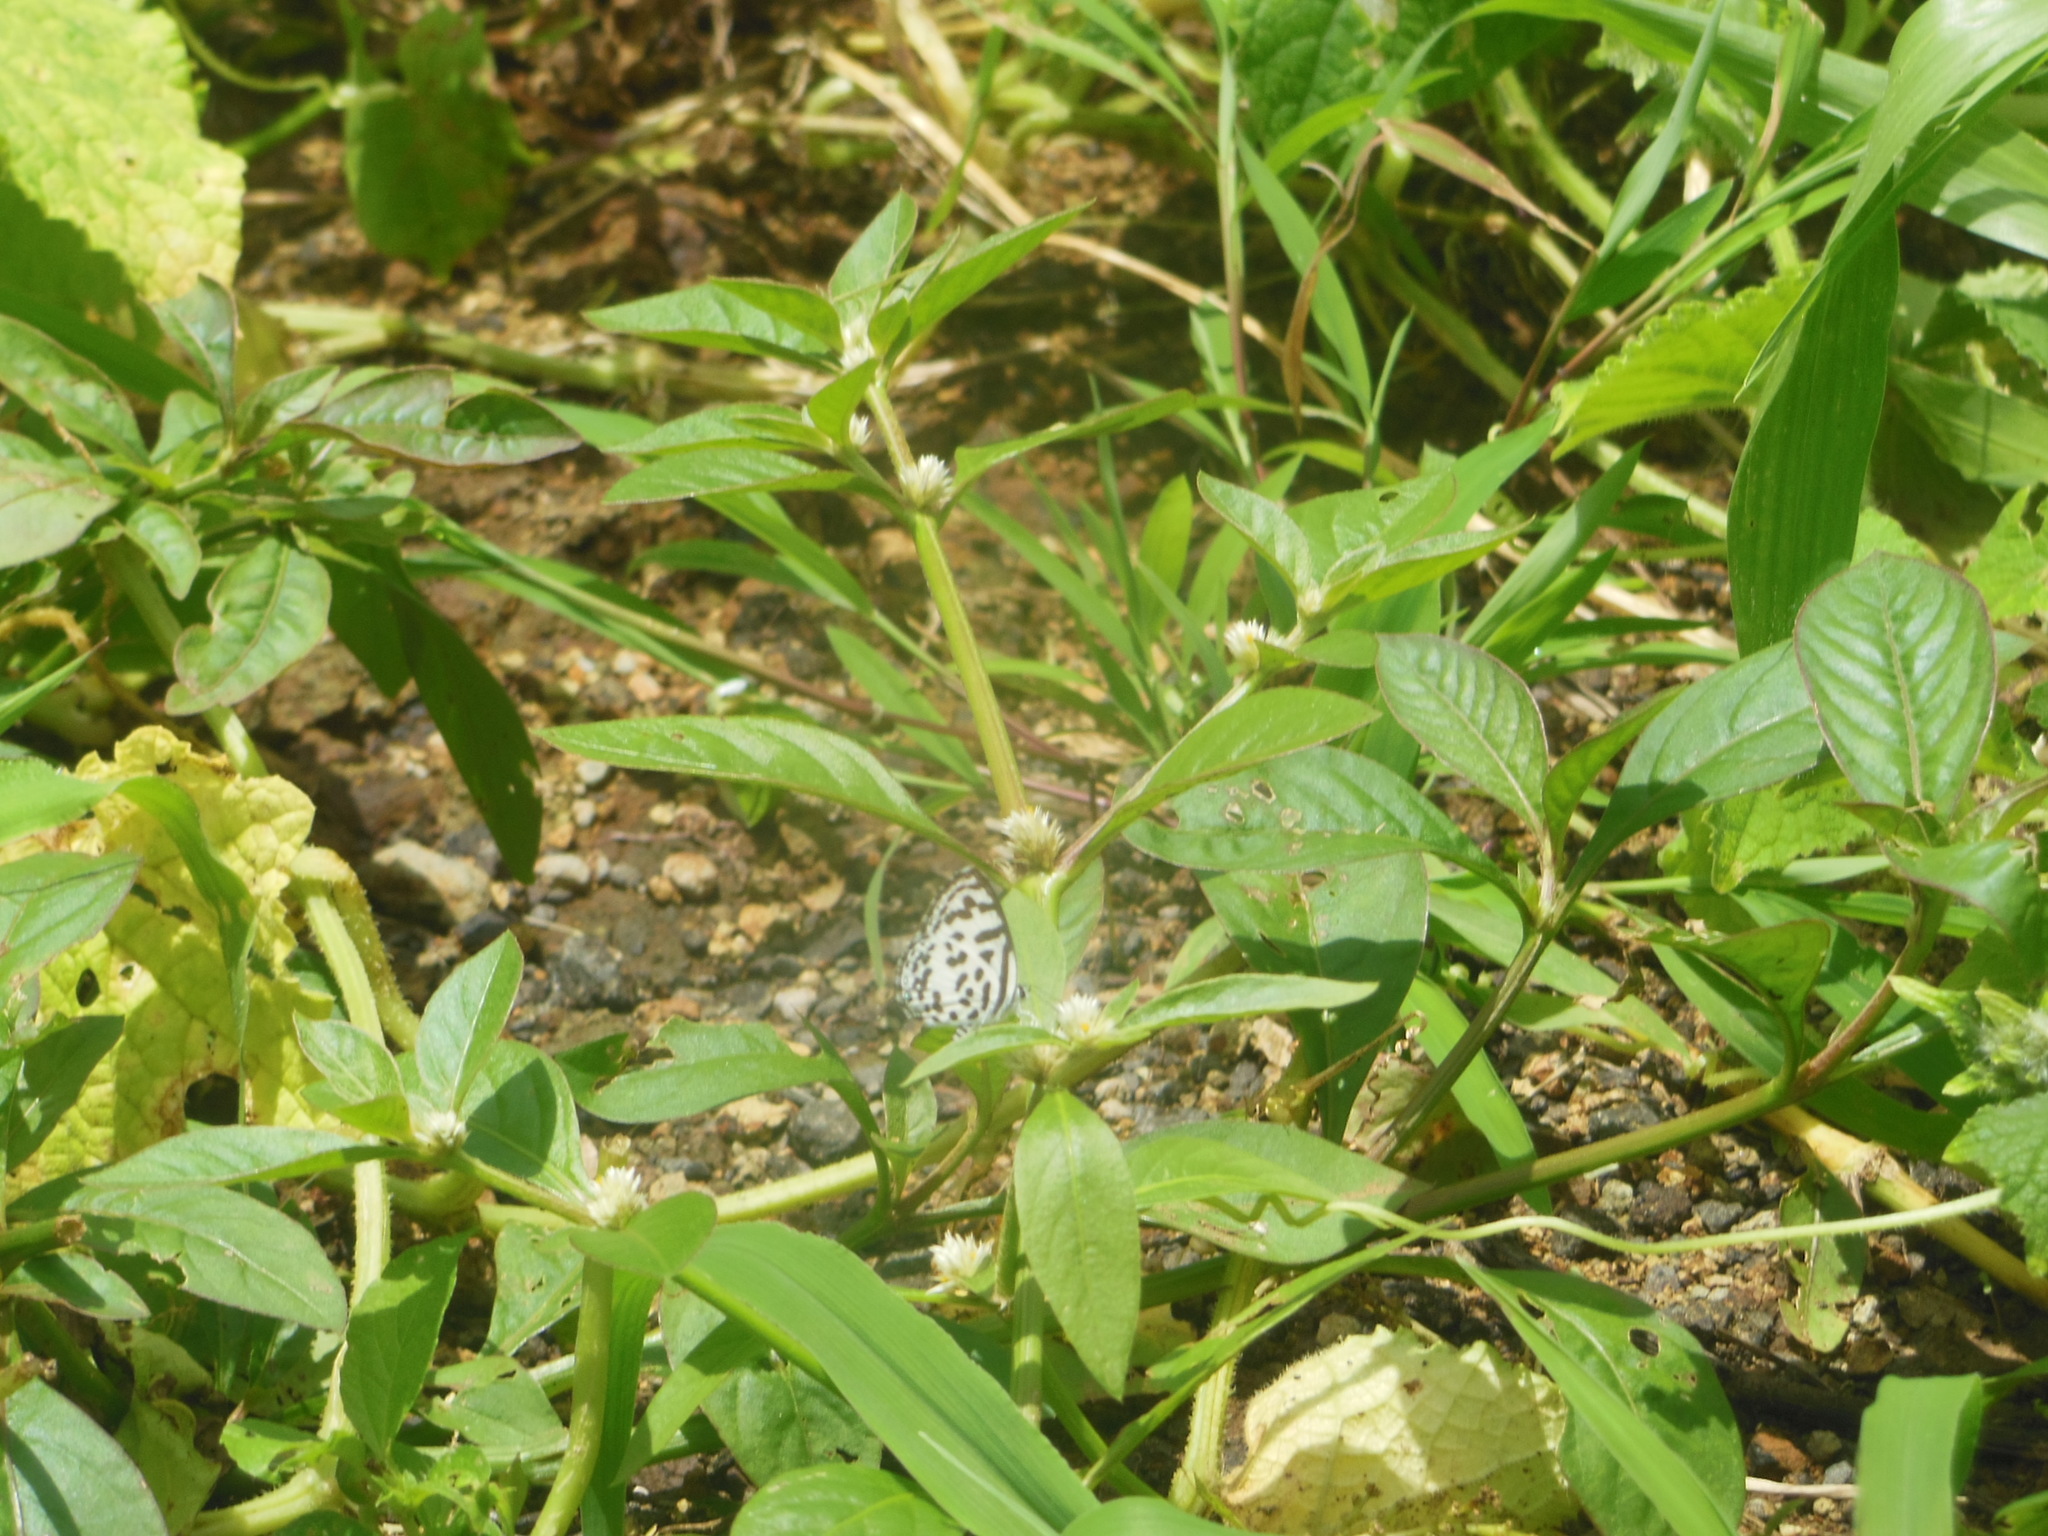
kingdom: Animalia
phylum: Arthropoda
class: Insecta
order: Lepidoptera
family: Lycaenidae
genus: Castalius
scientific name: Castalius rosimon
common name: Common pierrot
